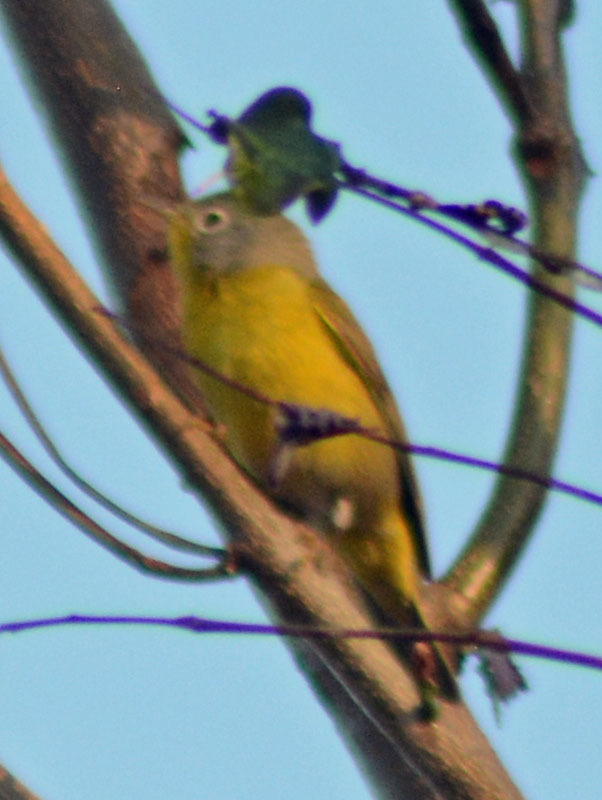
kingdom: Animalia
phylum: Chordata
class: Aves
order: Passeriformes
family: Parulidae
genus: Leiothlypis
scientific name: Leiothlypis ruficapilla
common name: Nashville warbler
